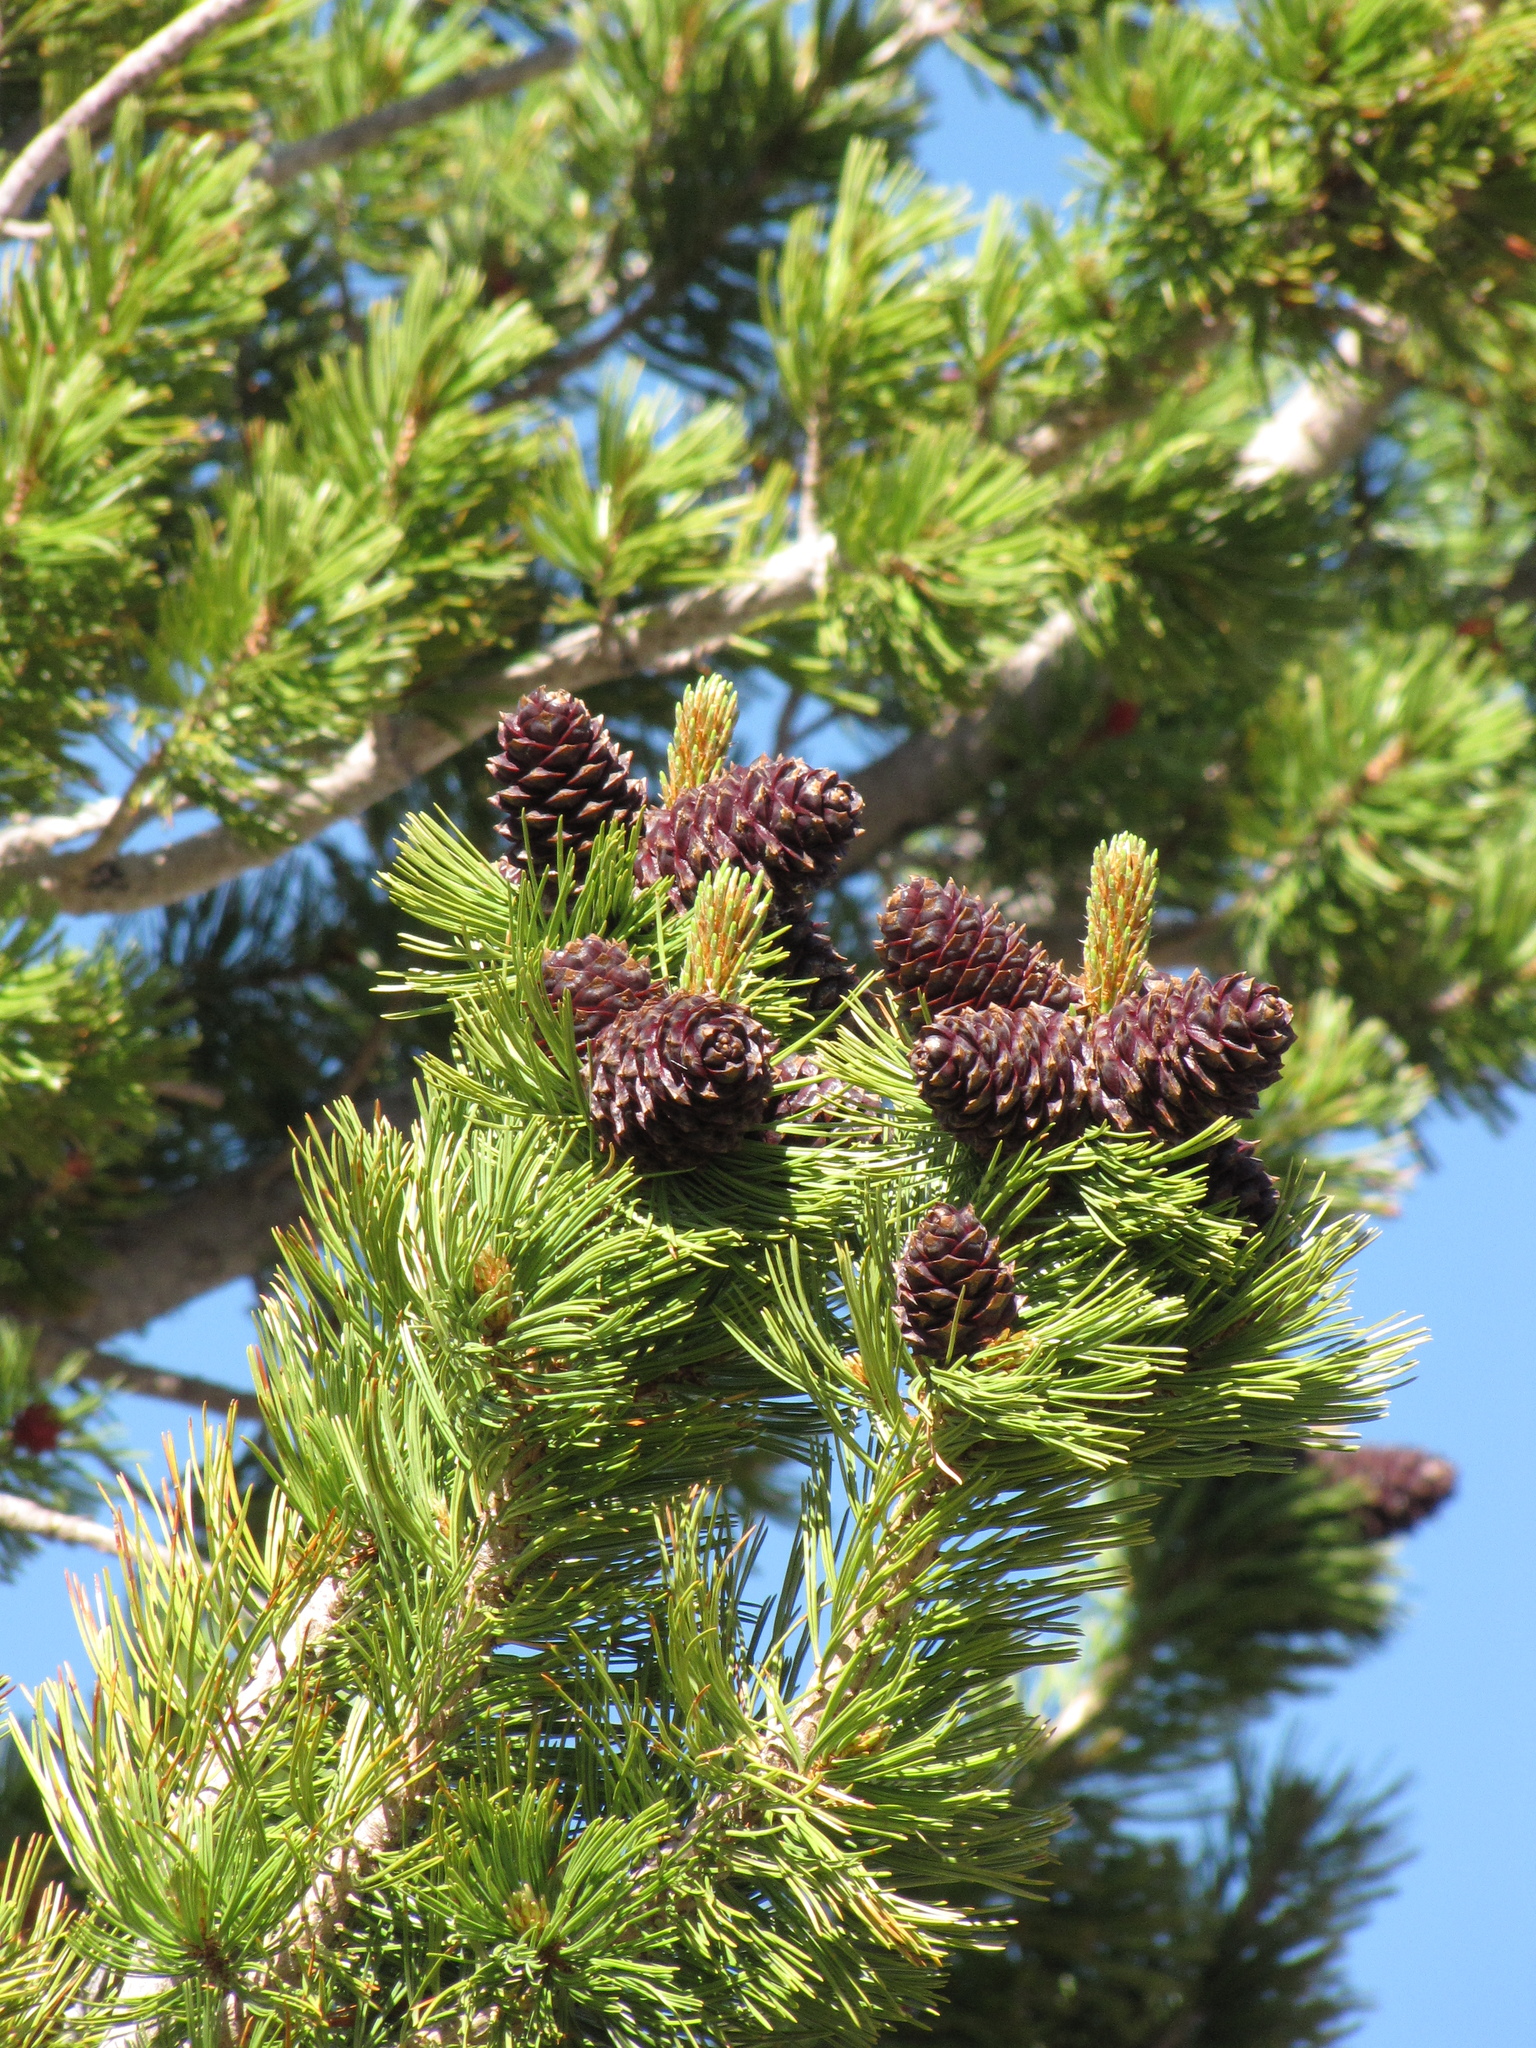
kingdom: Plantae
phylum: Tracheophyta
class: Pinopsida
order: Pinales
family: Pinaceae
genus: Pinus
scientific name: Pinus albicaulis
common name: Whitebark pine
